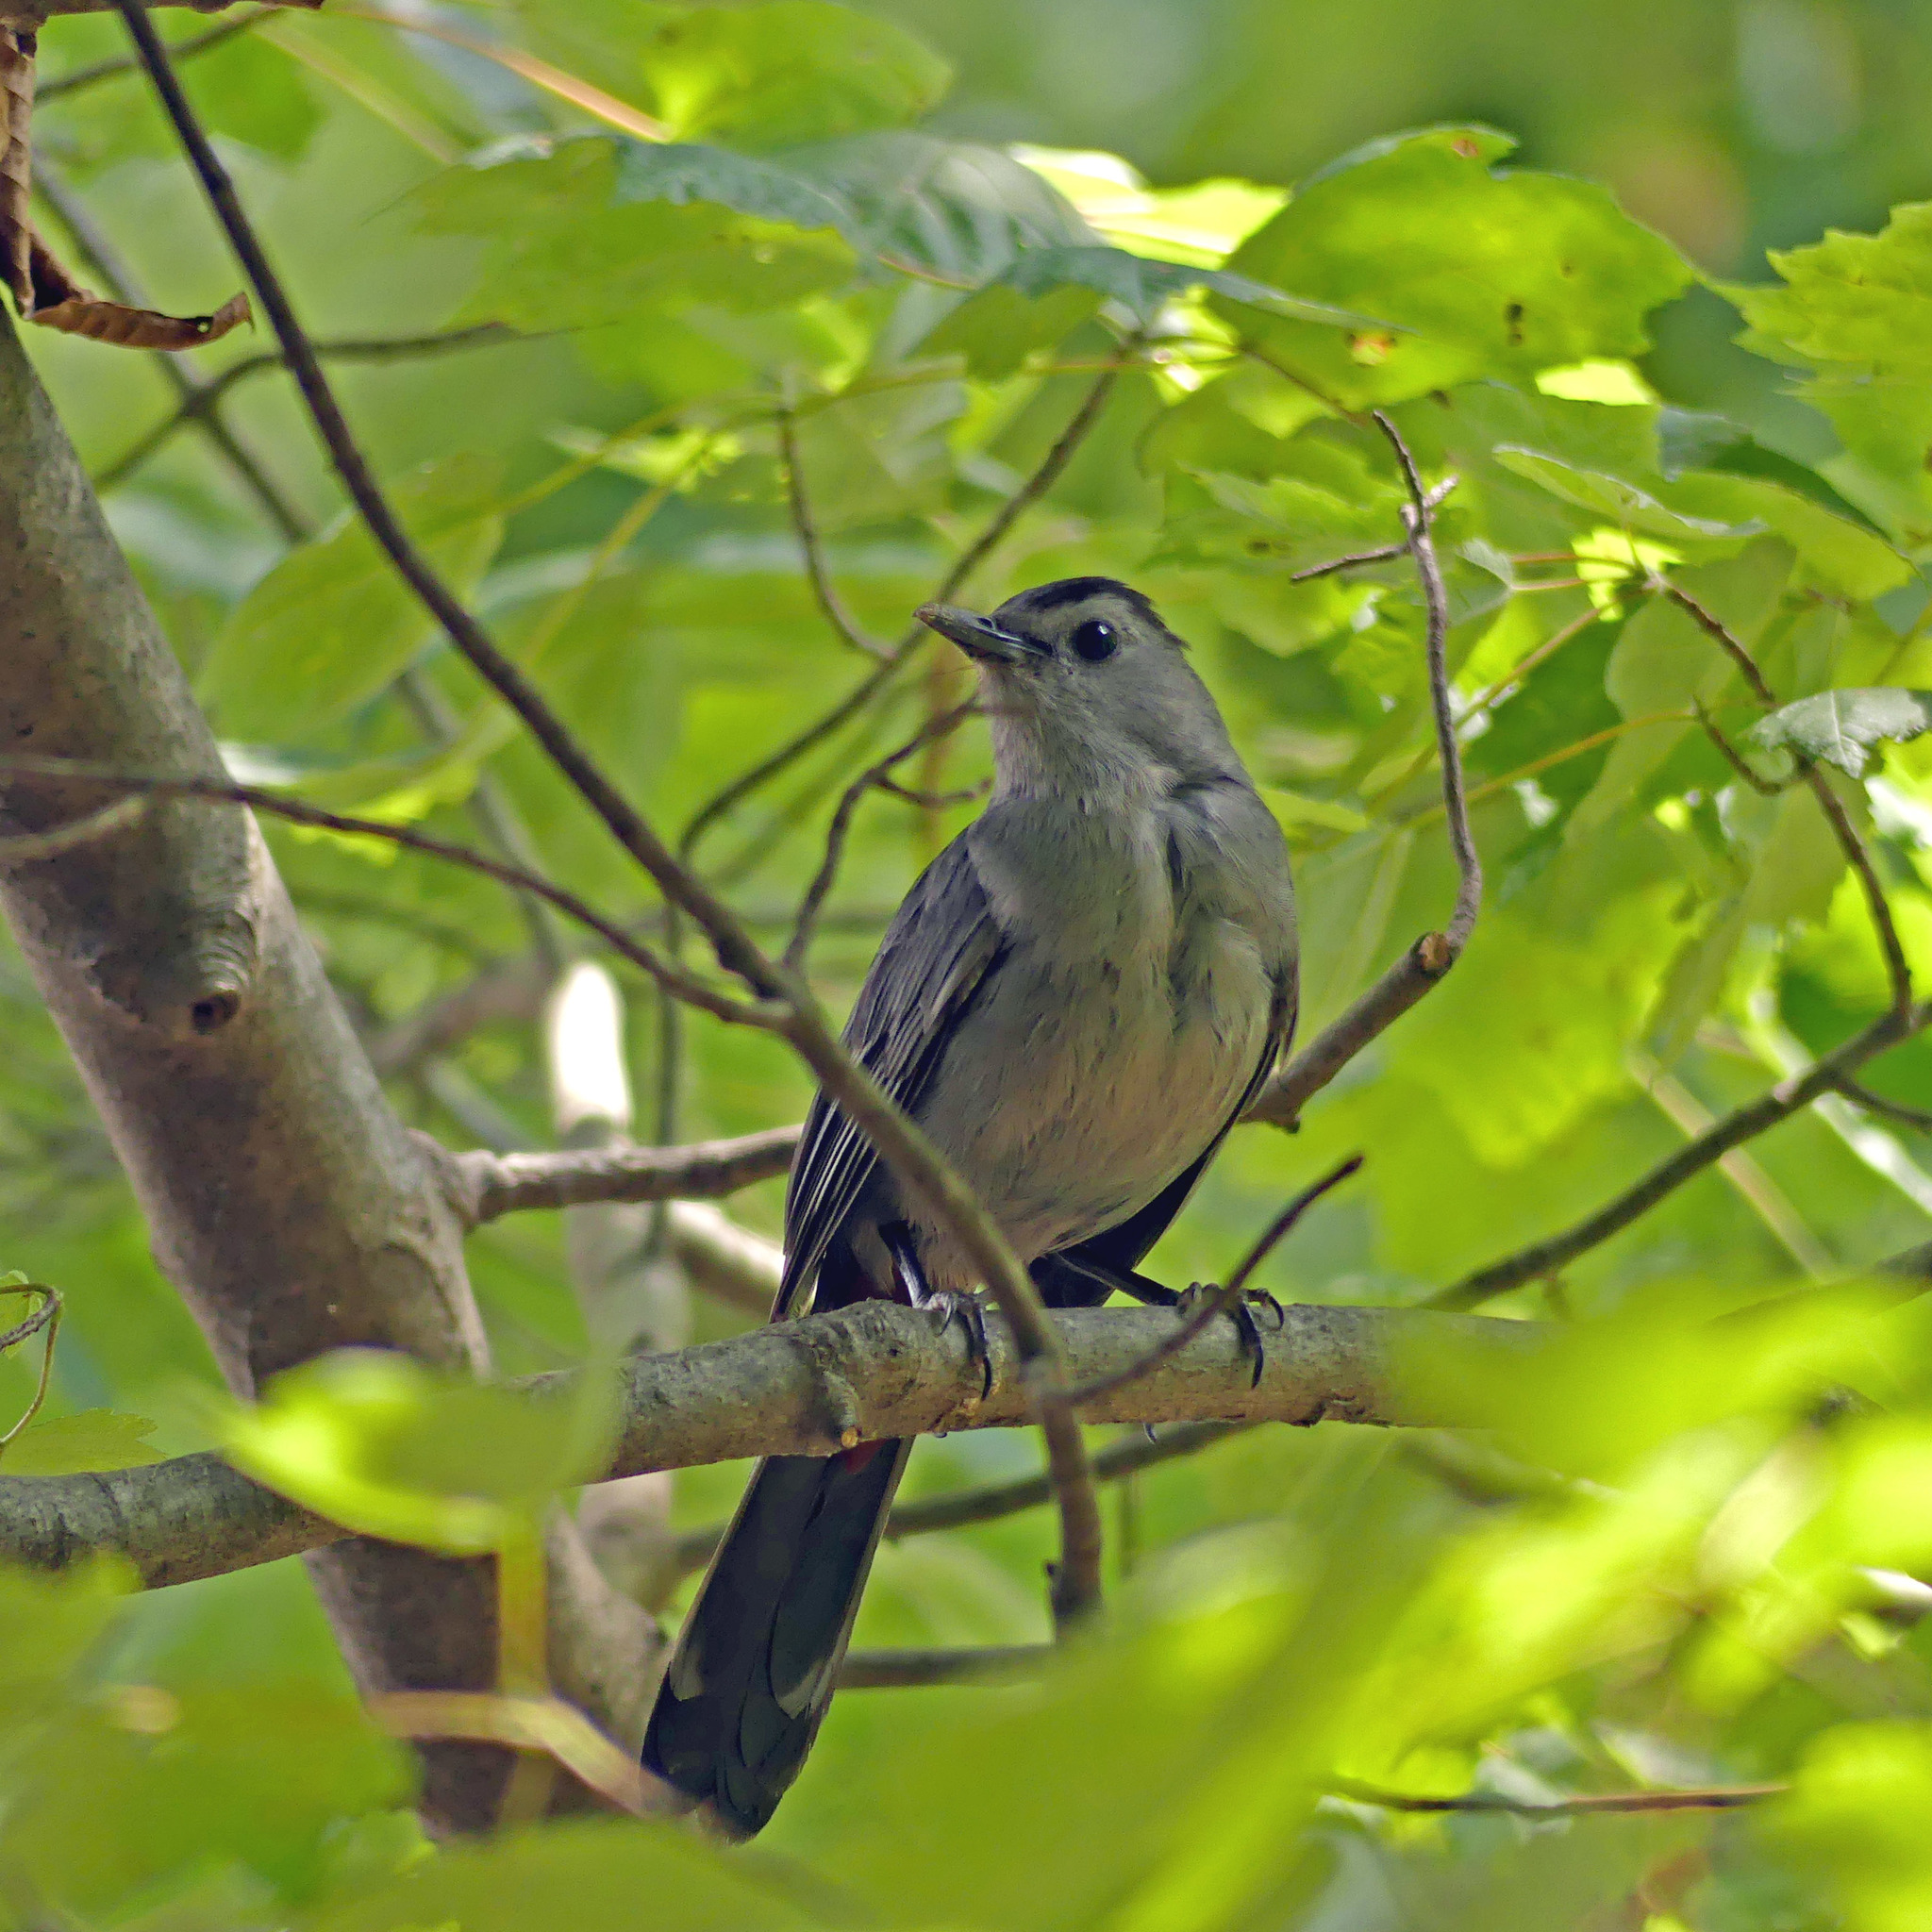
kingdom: Animalia
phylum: Chordata
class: Aves
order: Passeriformes
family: Mimidae
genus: Dumetella
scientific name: Dumetella carolinensis
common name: Gray catbird
